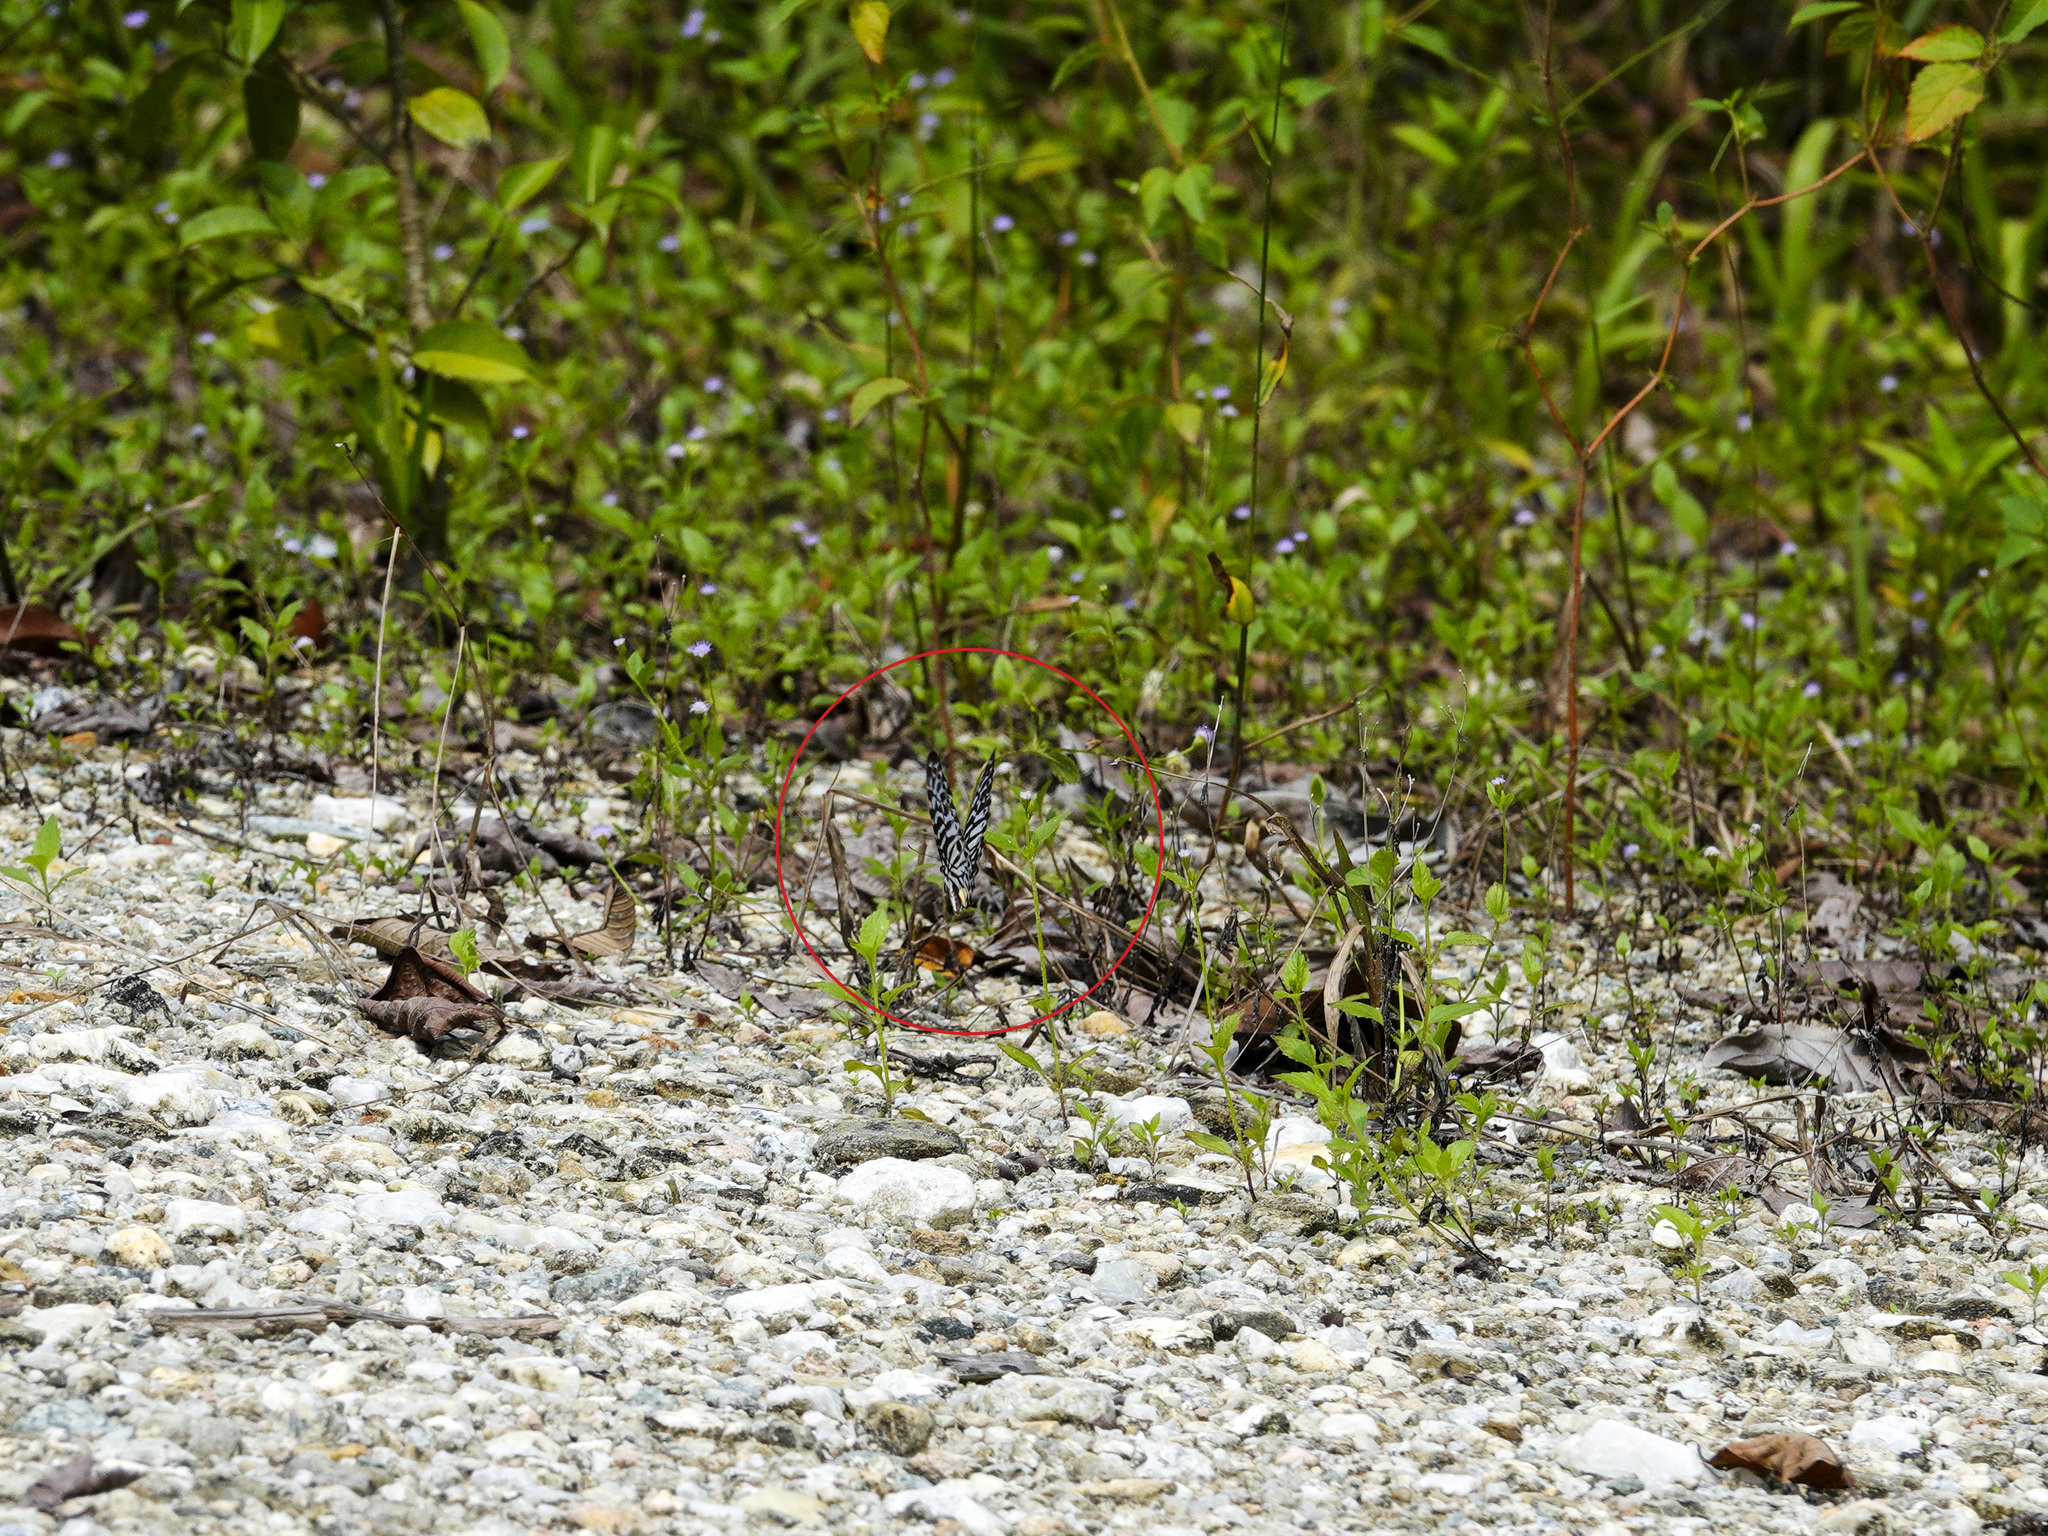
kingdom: Animalia
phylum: Arthropoda
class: Insecta
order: Lepidoptera
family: Papilionidae
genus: Graphium
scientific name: Graphium delesserti
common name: Malayan zebra
